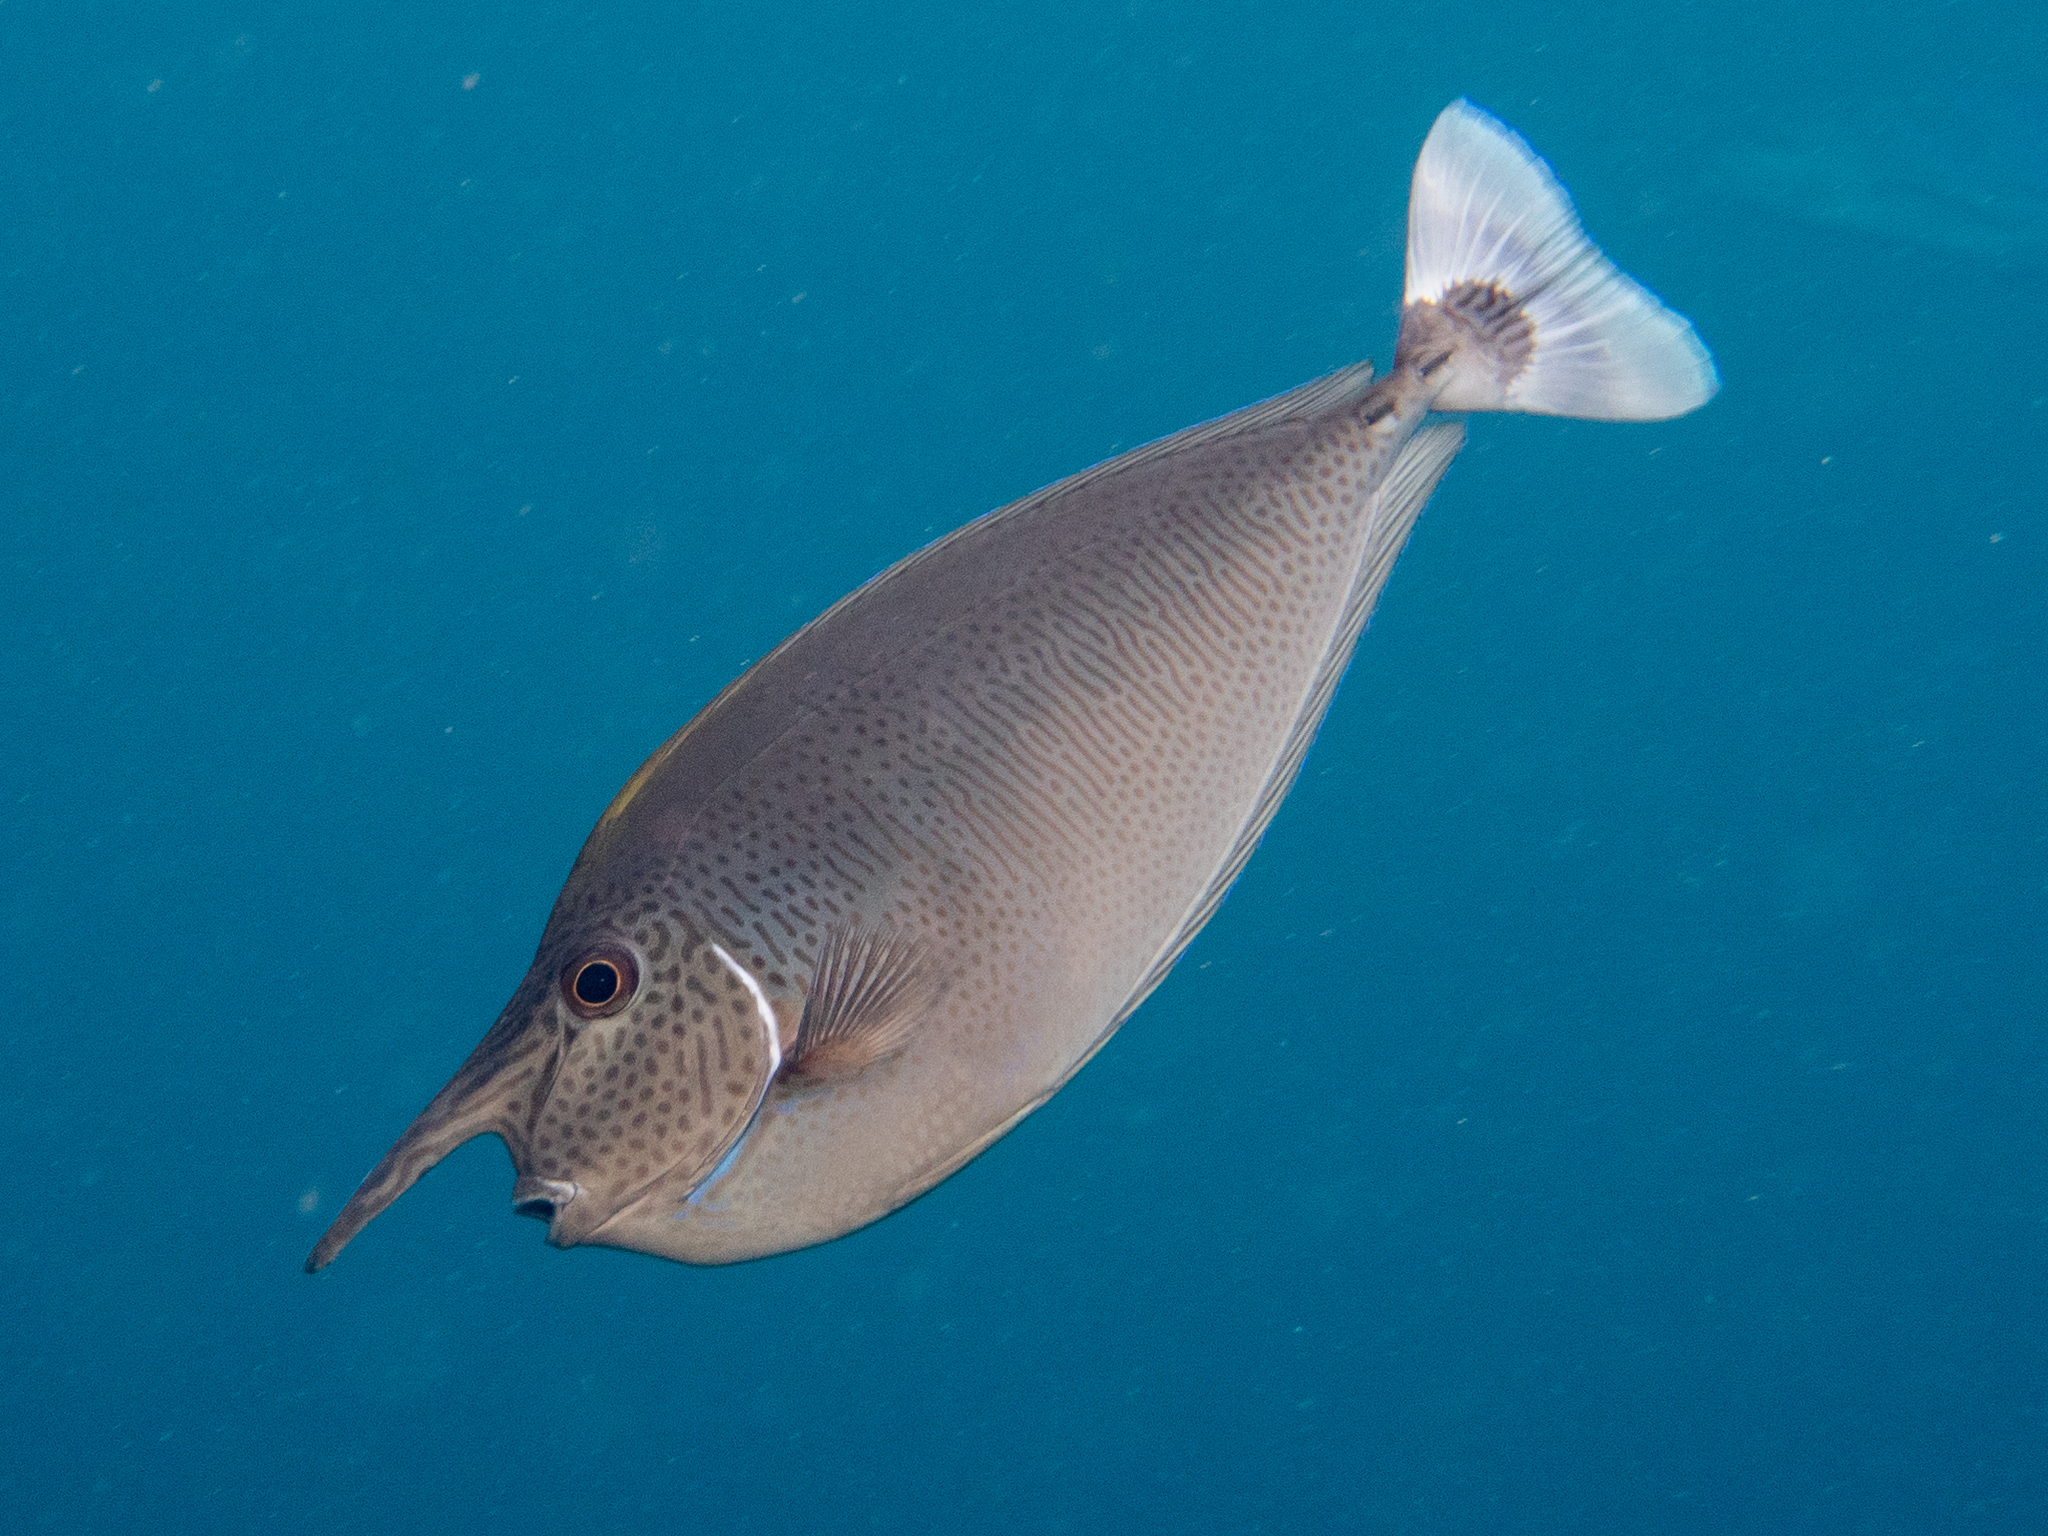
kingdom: Animalia
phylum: Chordata
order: Perciformes
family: Acanthuridae
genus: Naso
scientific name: Naso brevirostris
